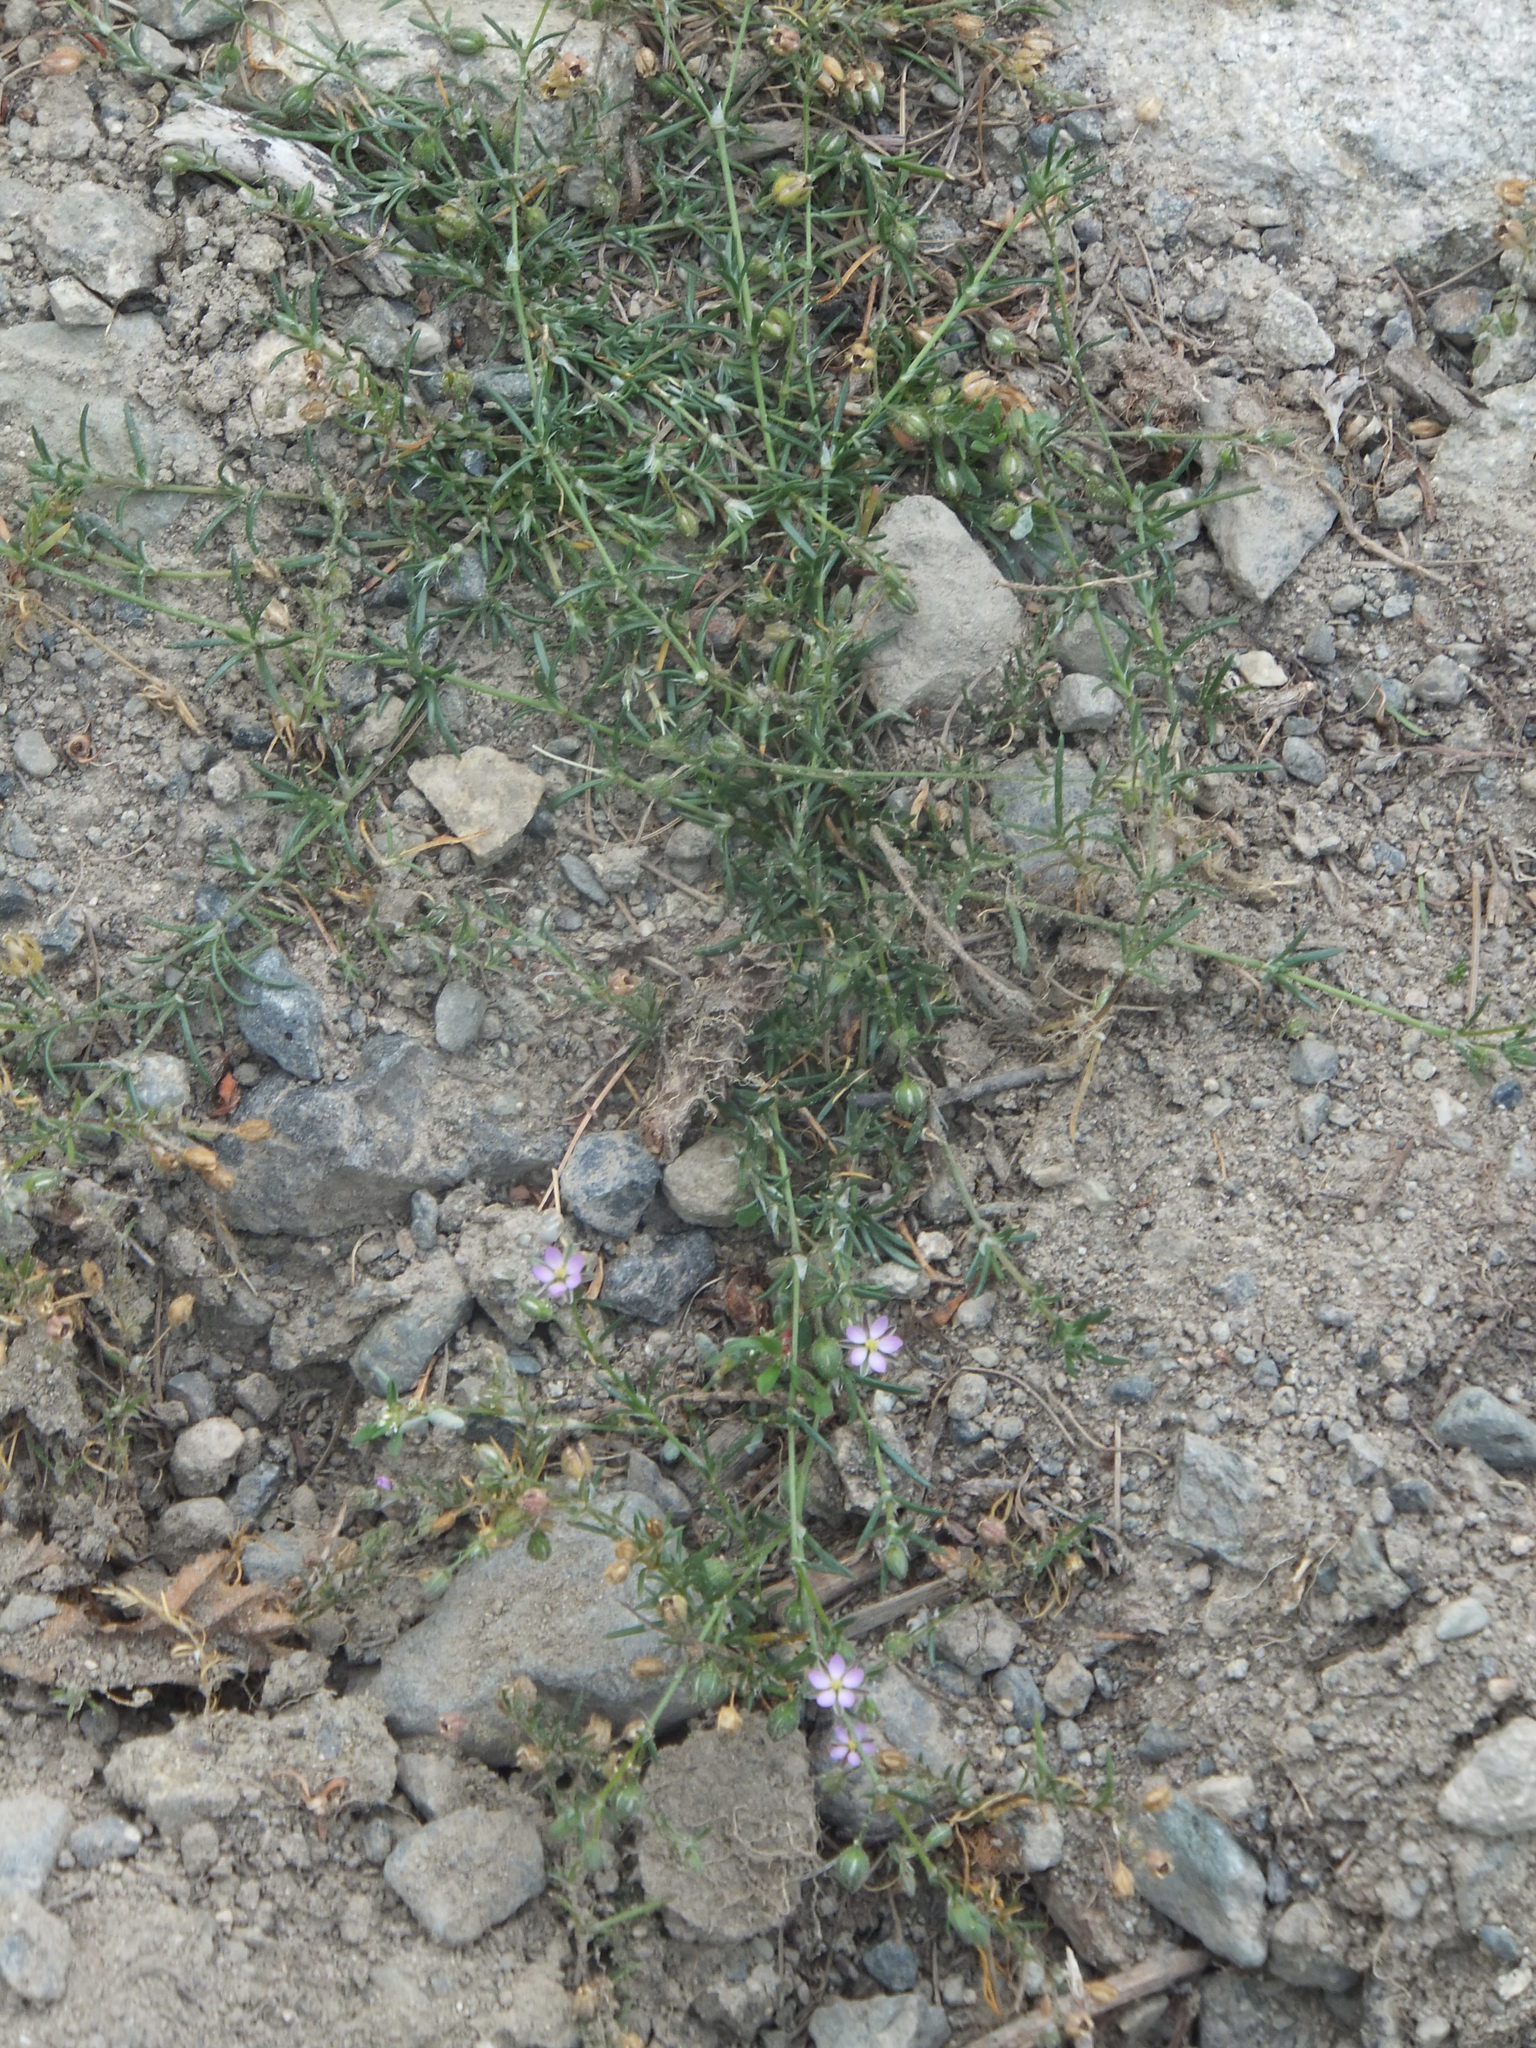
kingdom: Plantae
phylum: Tracheophyta
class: Magnoliopsida
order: Caryophyllales
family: Caryophyllaceae
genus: Spergularia
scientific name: Spergularia rubra
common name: Red sand-spurrey
